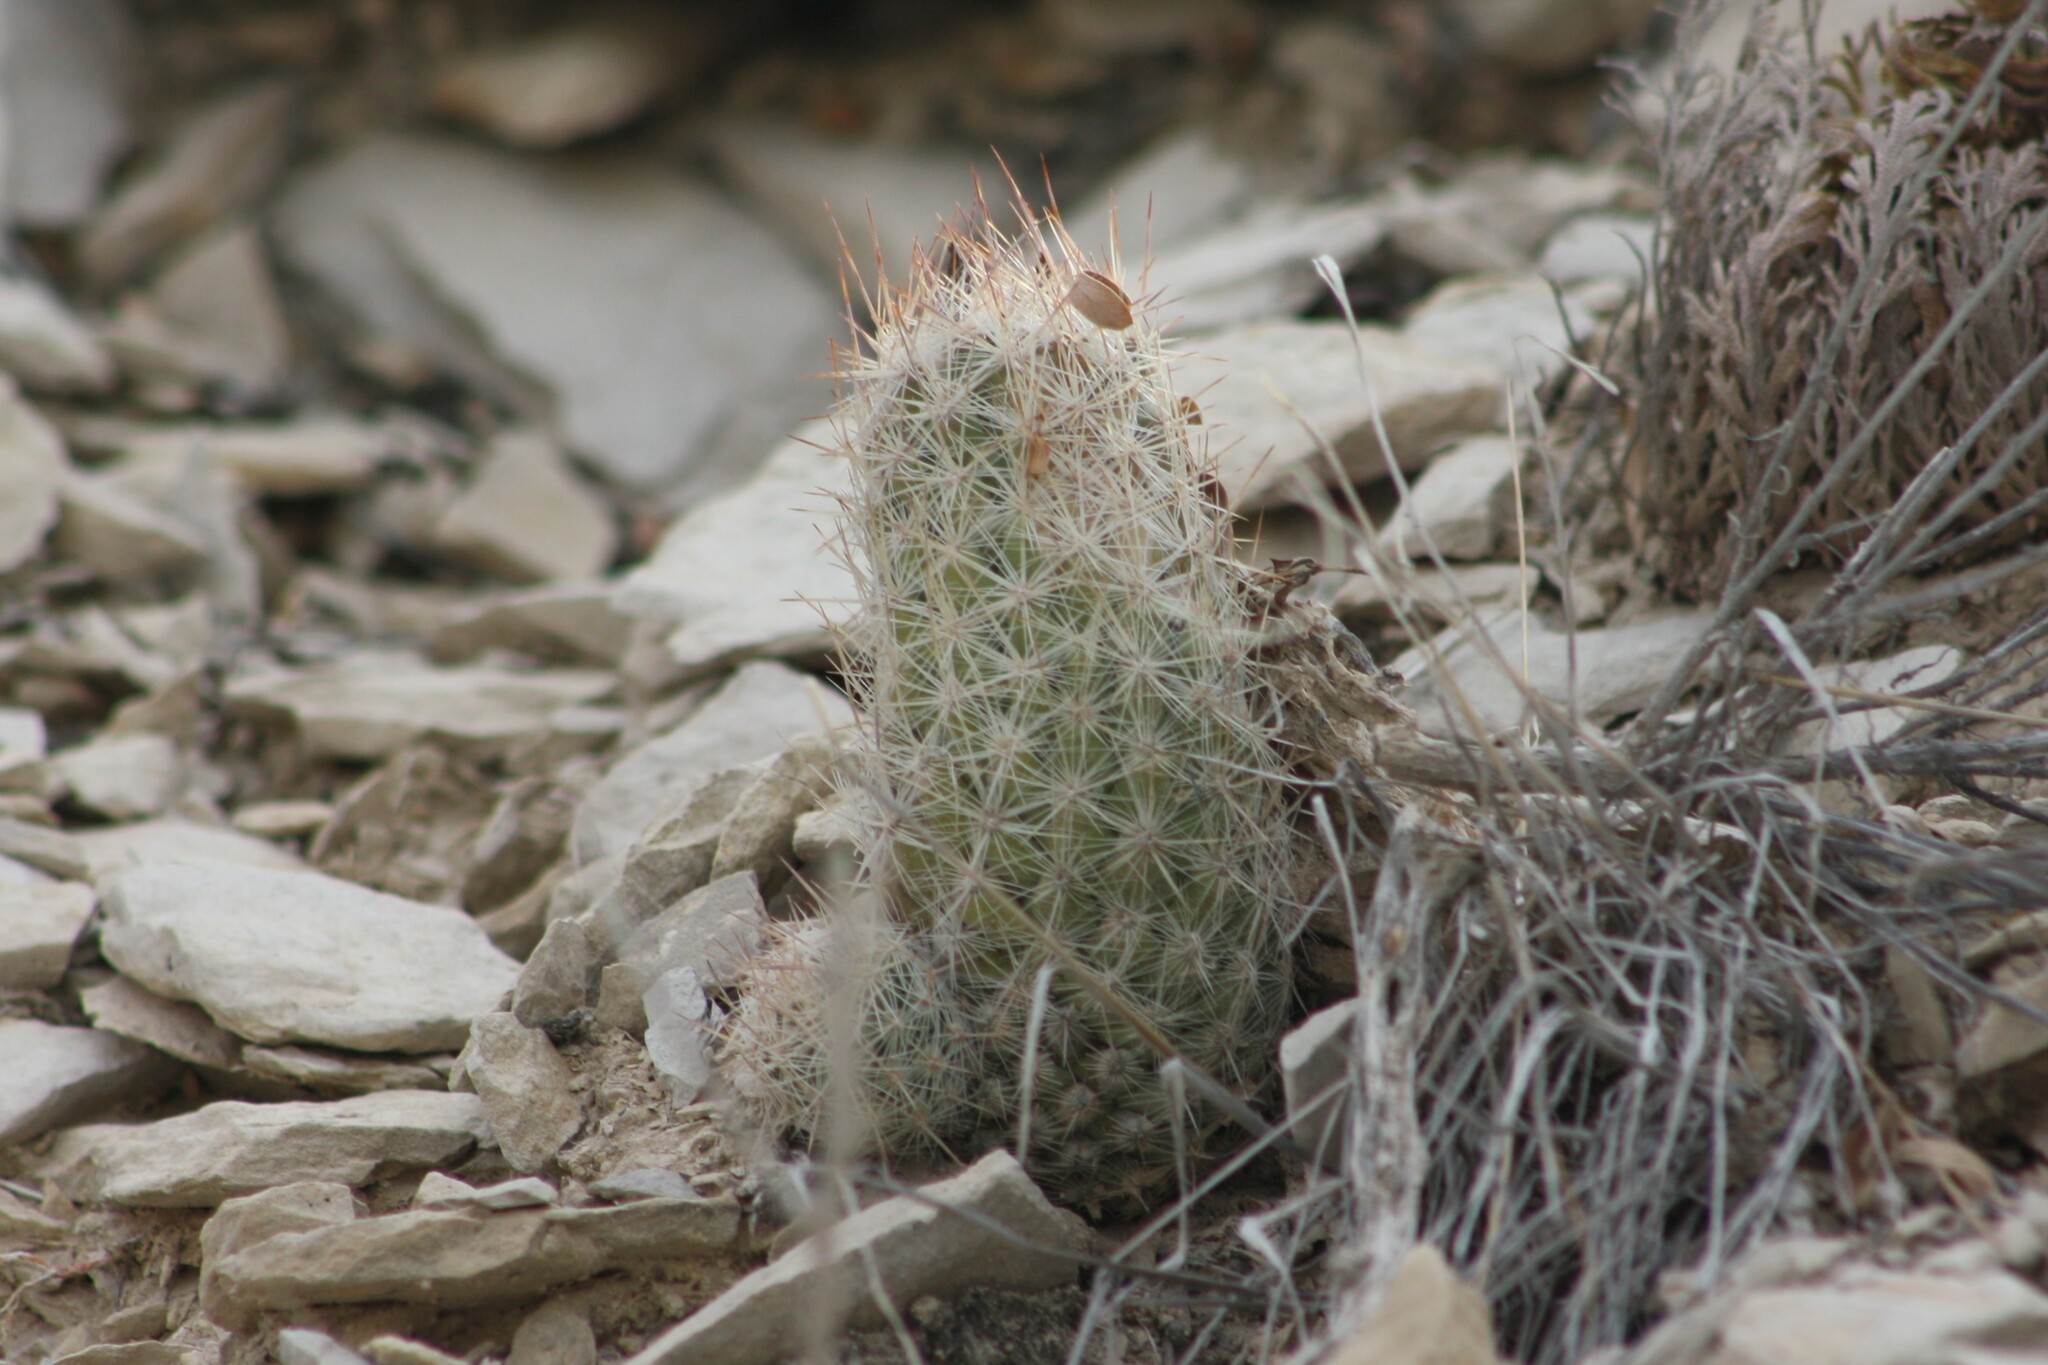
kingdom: Plantae
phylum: Tracheophyta
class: Magnoliopsida
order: Caryophyllales
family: Cactaceae
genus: Pelecyphora
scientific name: Pelecyphora tuberculosa
